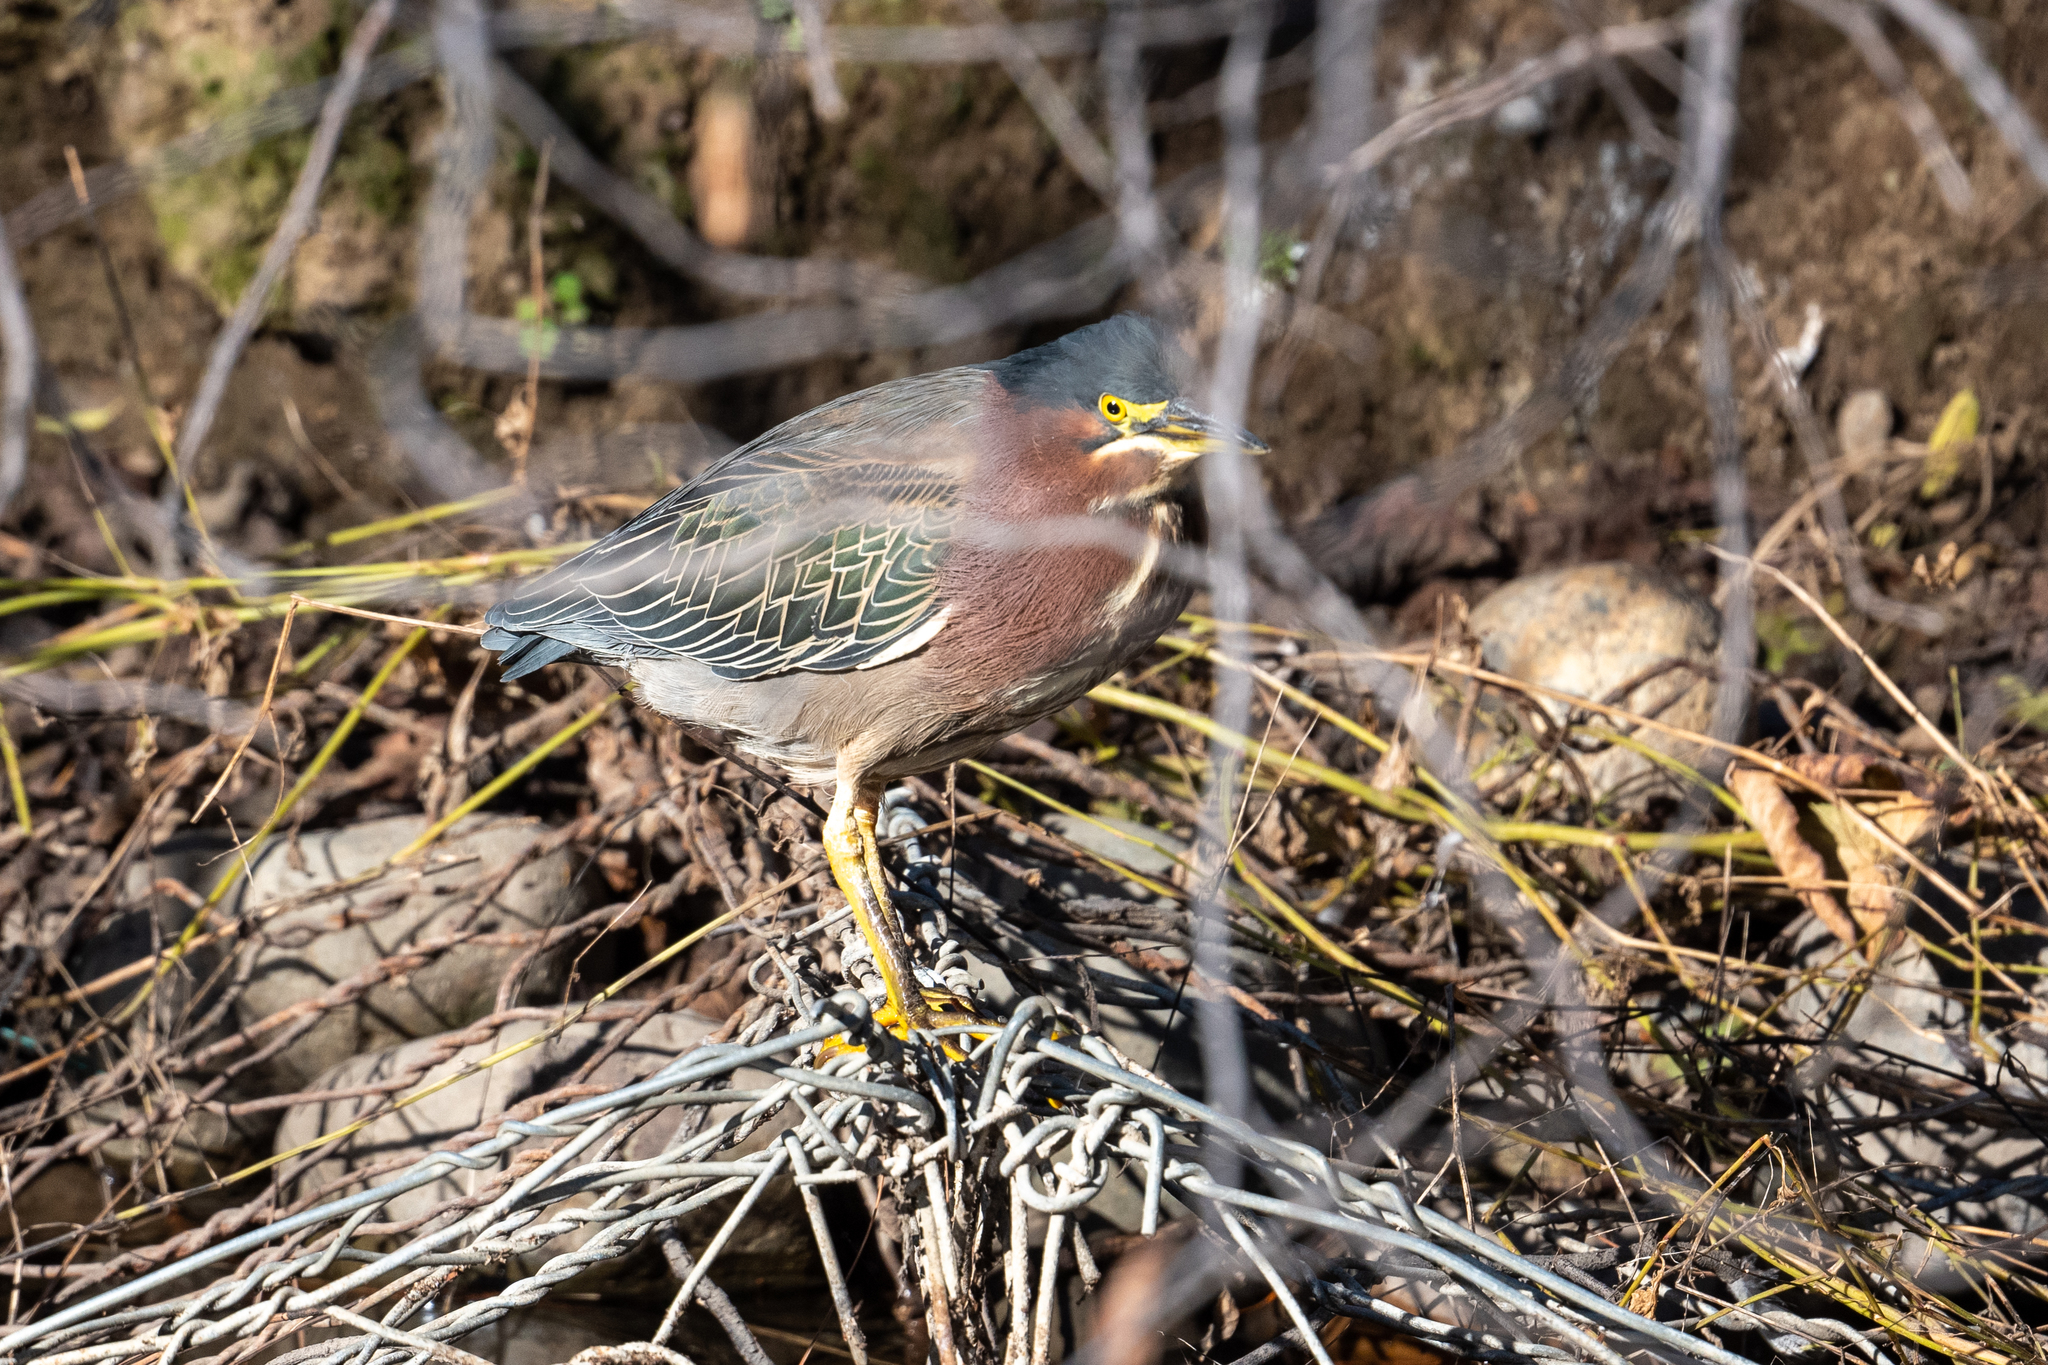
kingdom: Animalia
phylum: Chordata
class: Aves
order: Pelecaniformes
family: Ardeidae
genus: Butorides
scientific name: Butorides virescens
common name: Green heron
